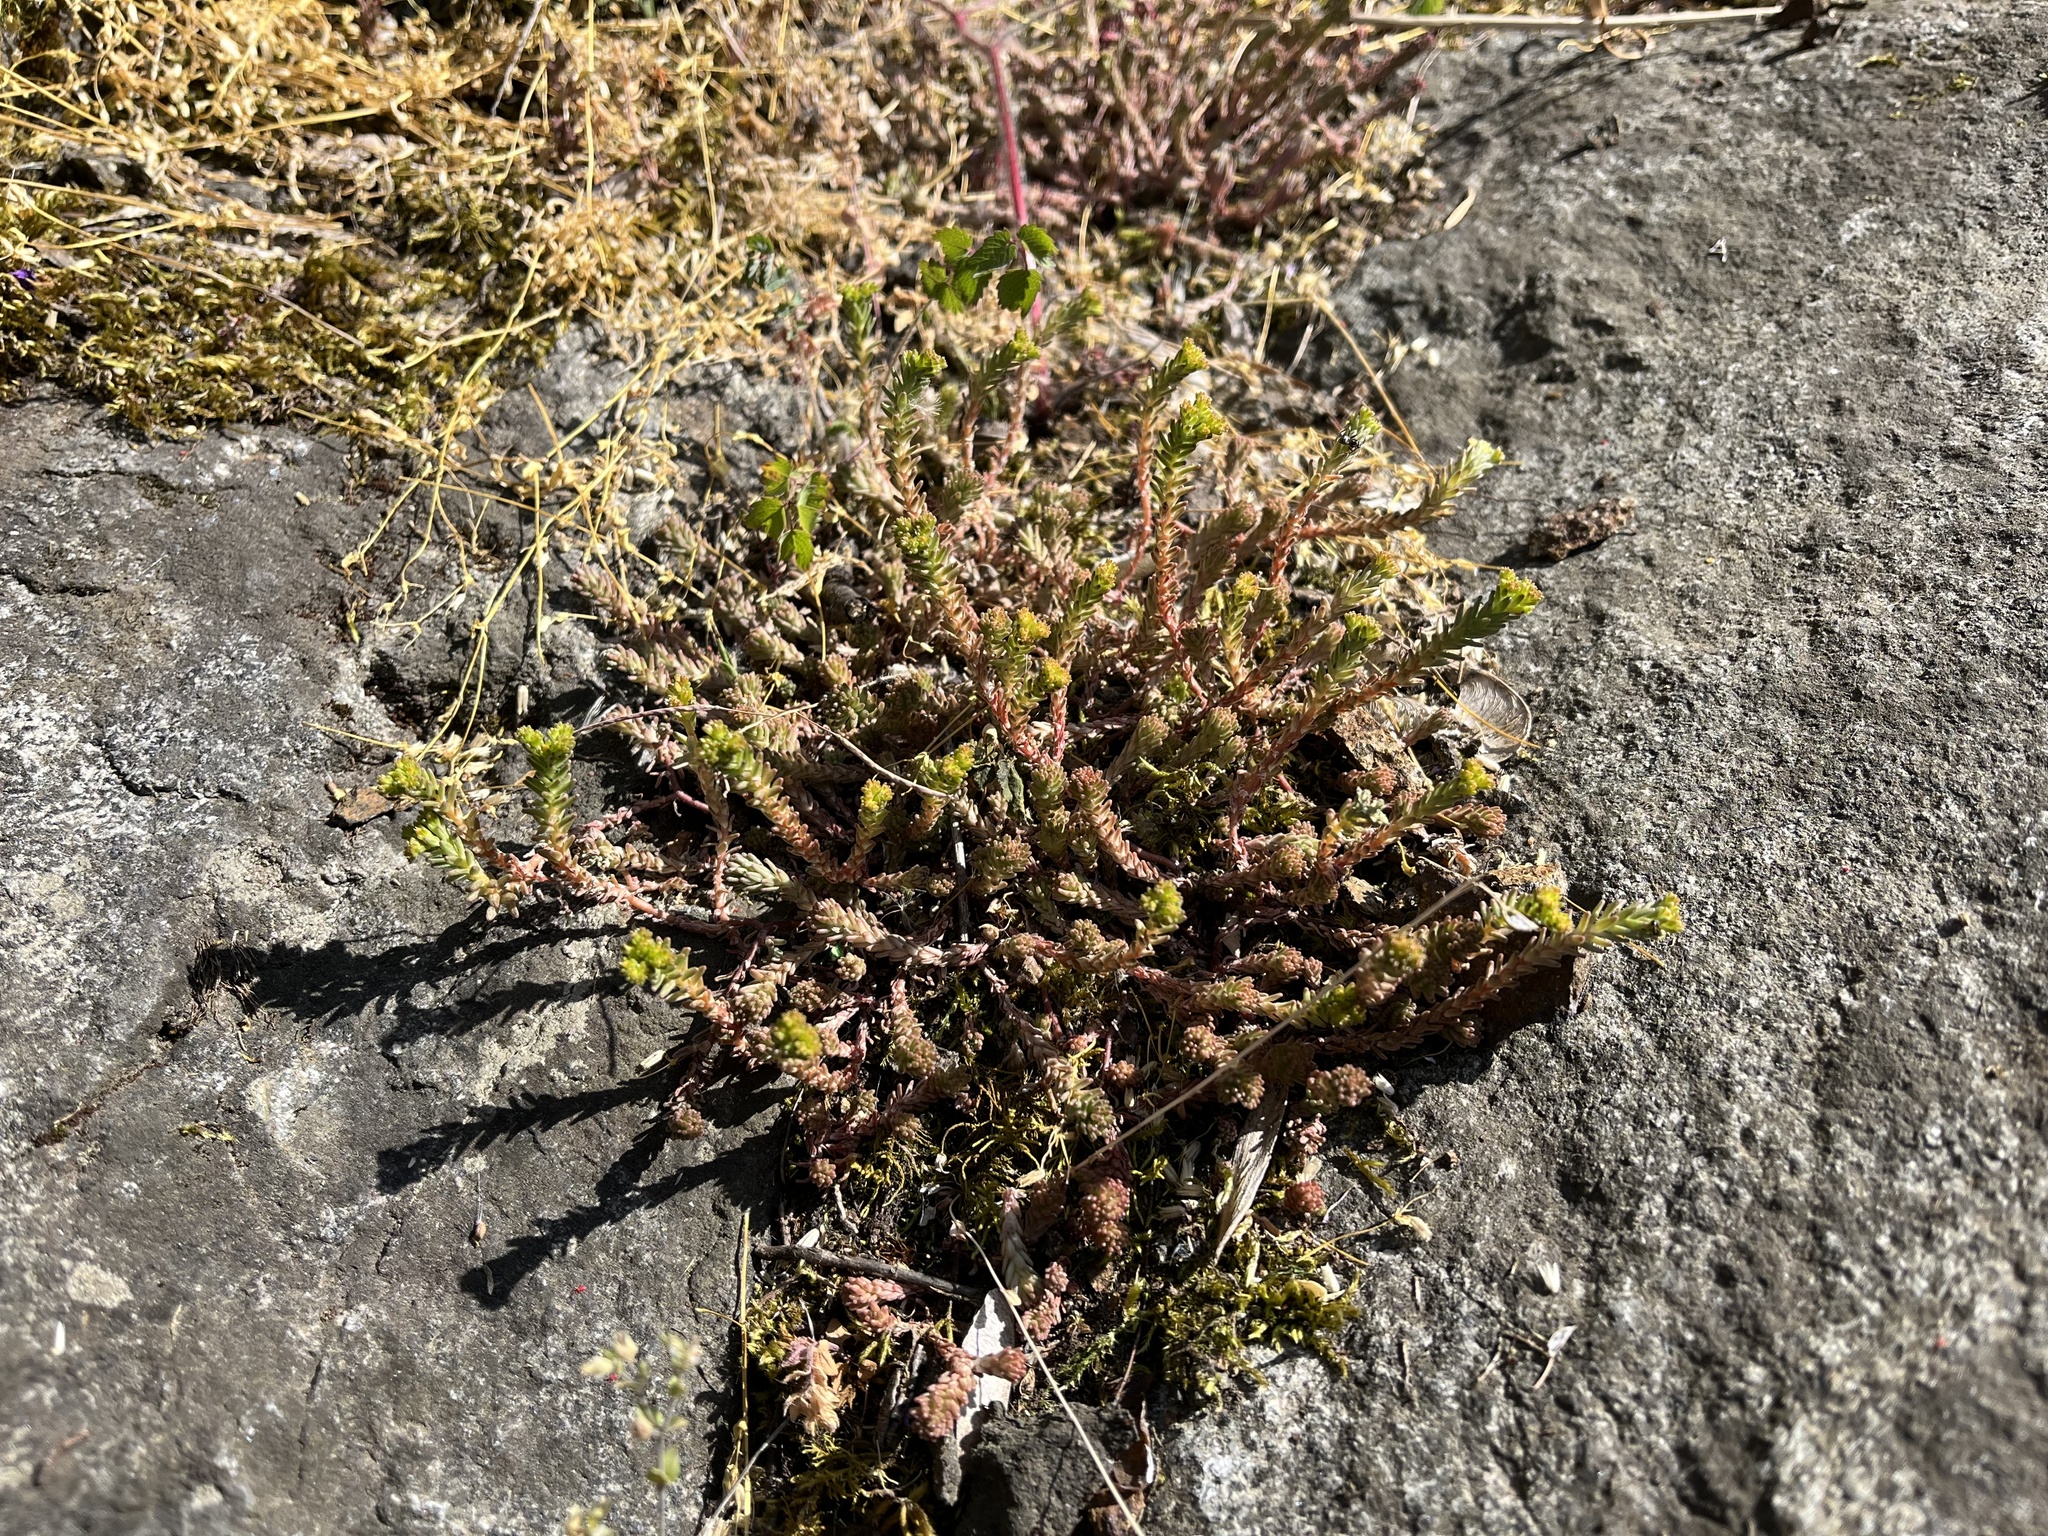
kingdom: Plantae
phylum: Tracheophyta
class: Magnoliopsida
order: Saxifragales
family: Crassulaceae
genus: Sedum
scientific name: Sedum sexangulare
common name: Tasteless stonecrop
